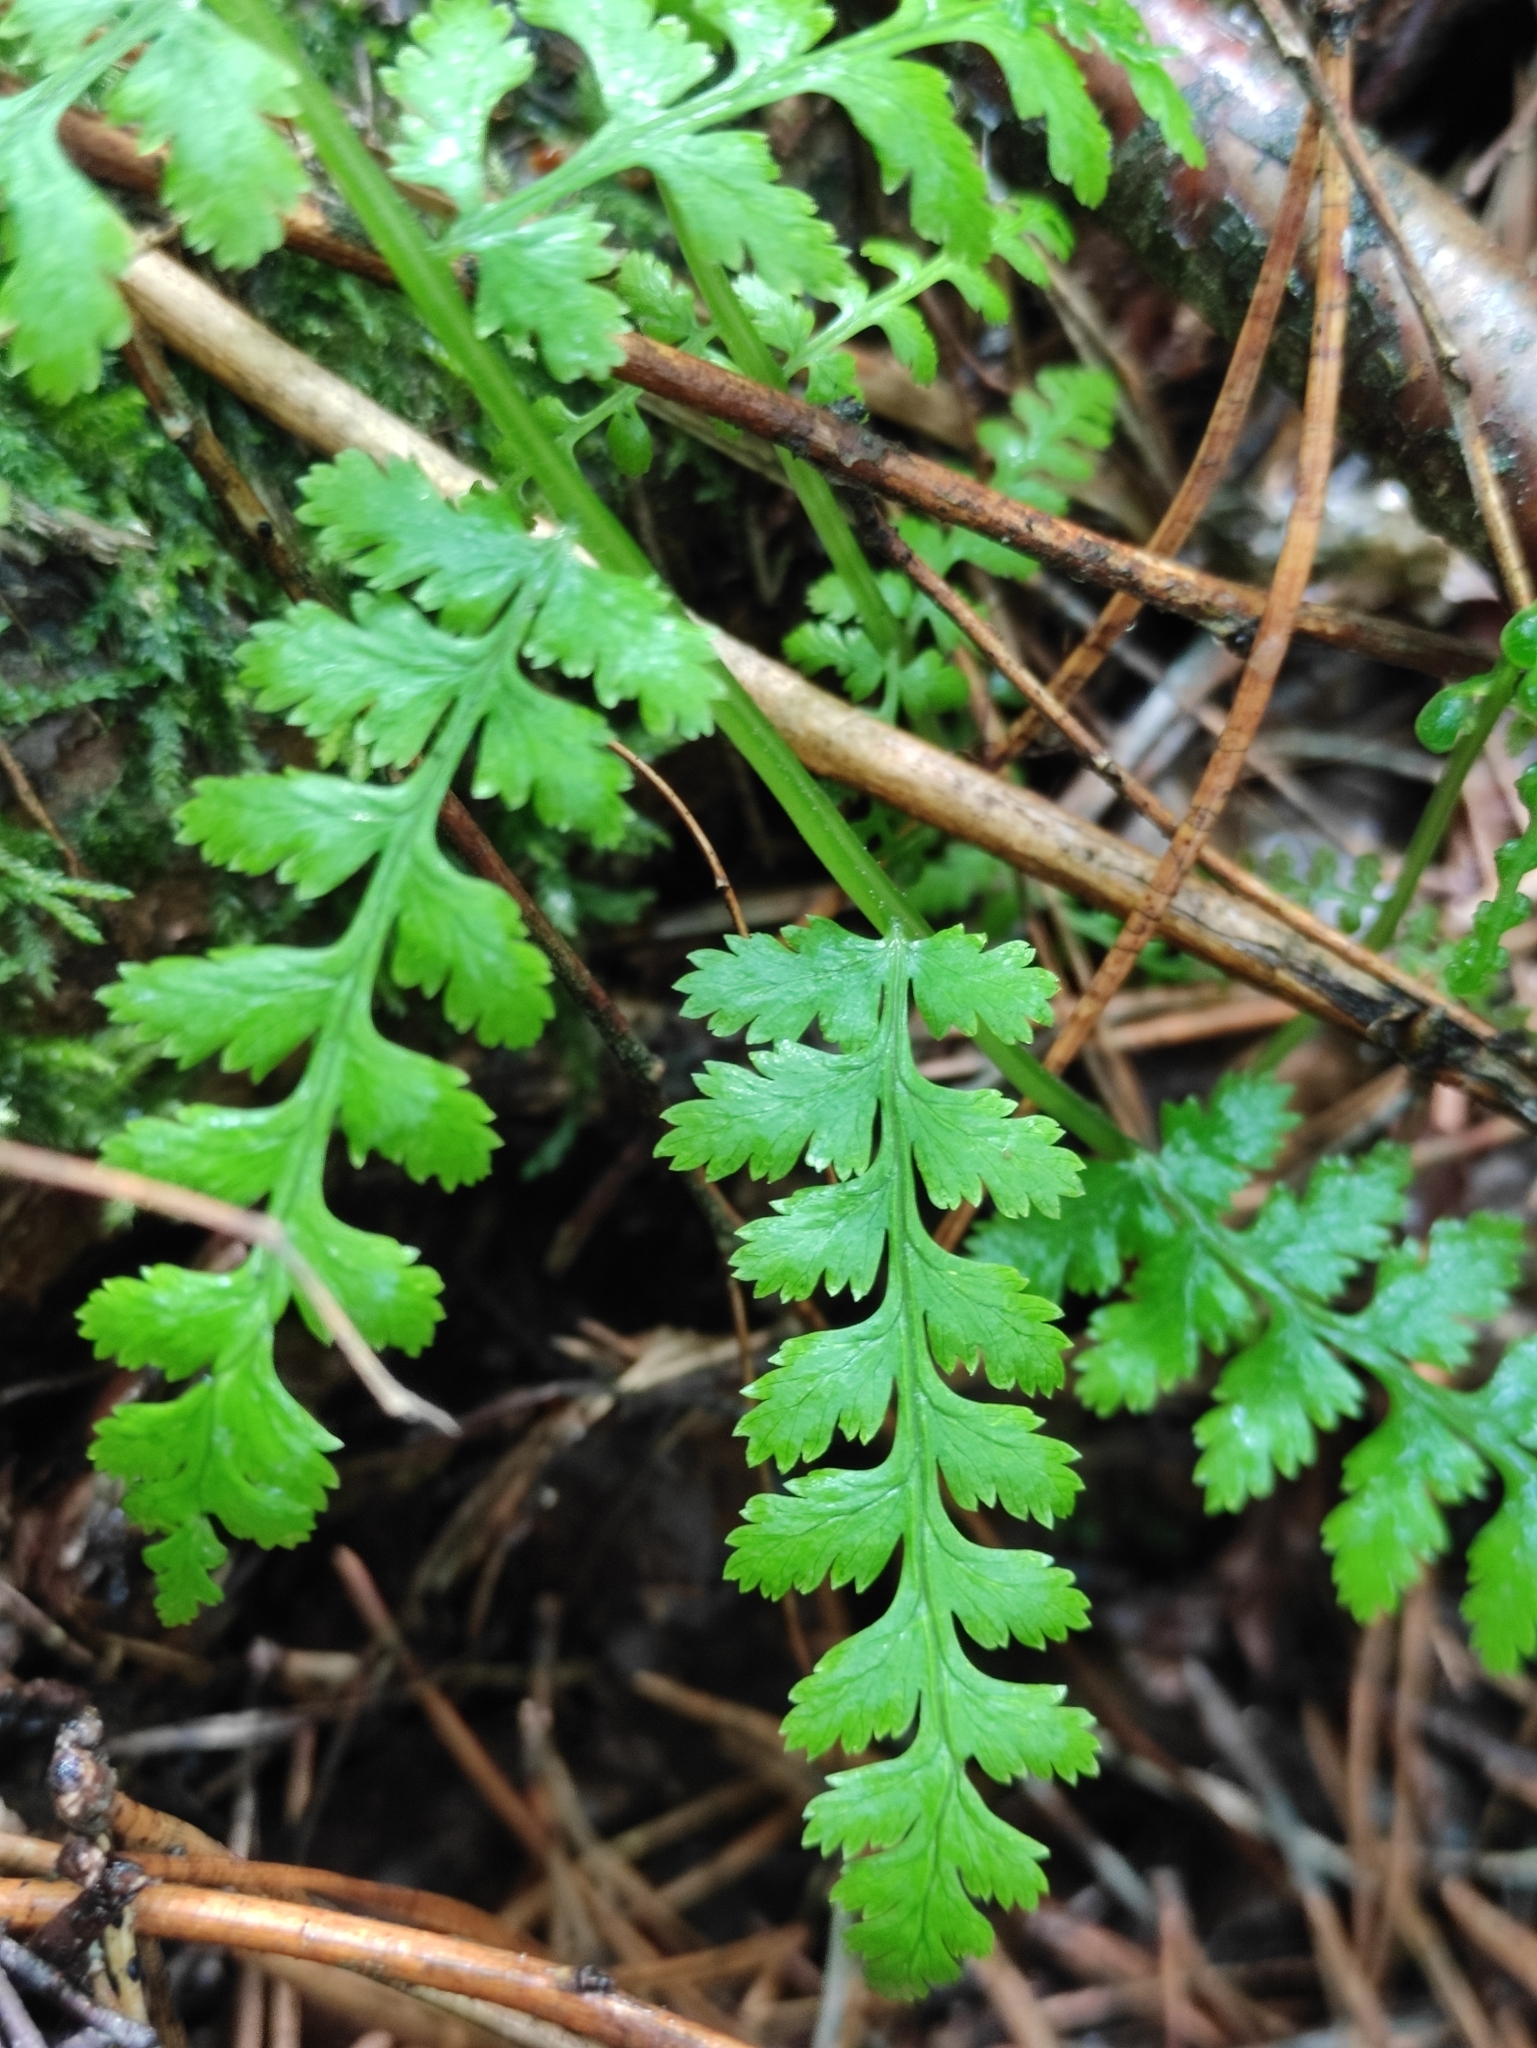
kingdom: Plantae
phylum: Tracheophyta
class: Polypodiopsida
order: Polypodiales
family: Athyriaceae
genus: Athyrium
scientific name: Athyrium filix-femina
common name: Lady fern
